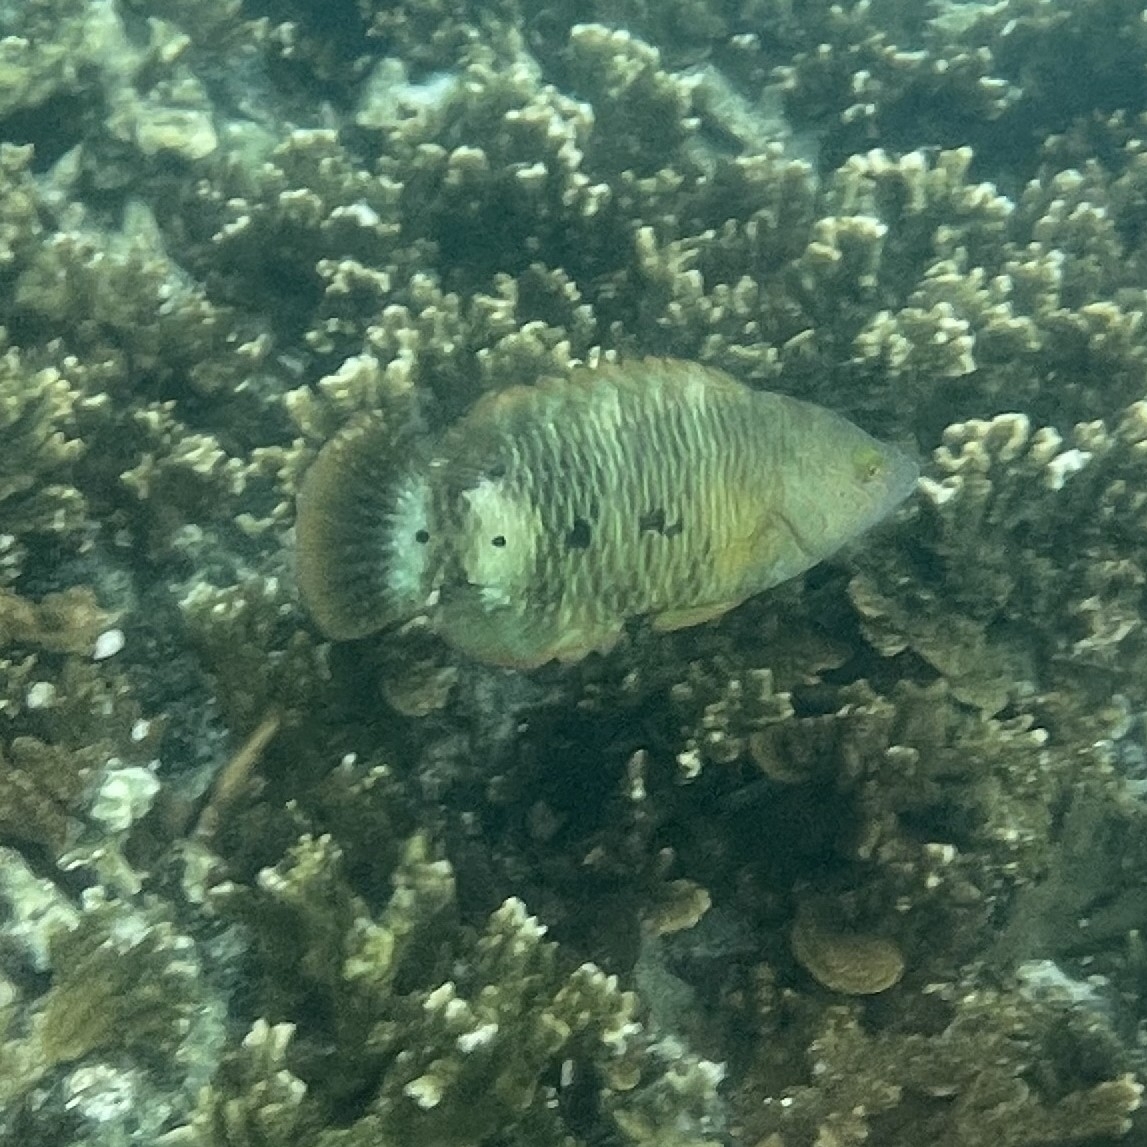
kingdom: Animalia
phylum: Chordata
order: Perciformes
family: Labridae
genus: Cheilinus
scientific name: Cheilinus trilobatus
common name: Tripletail maori wrasse
